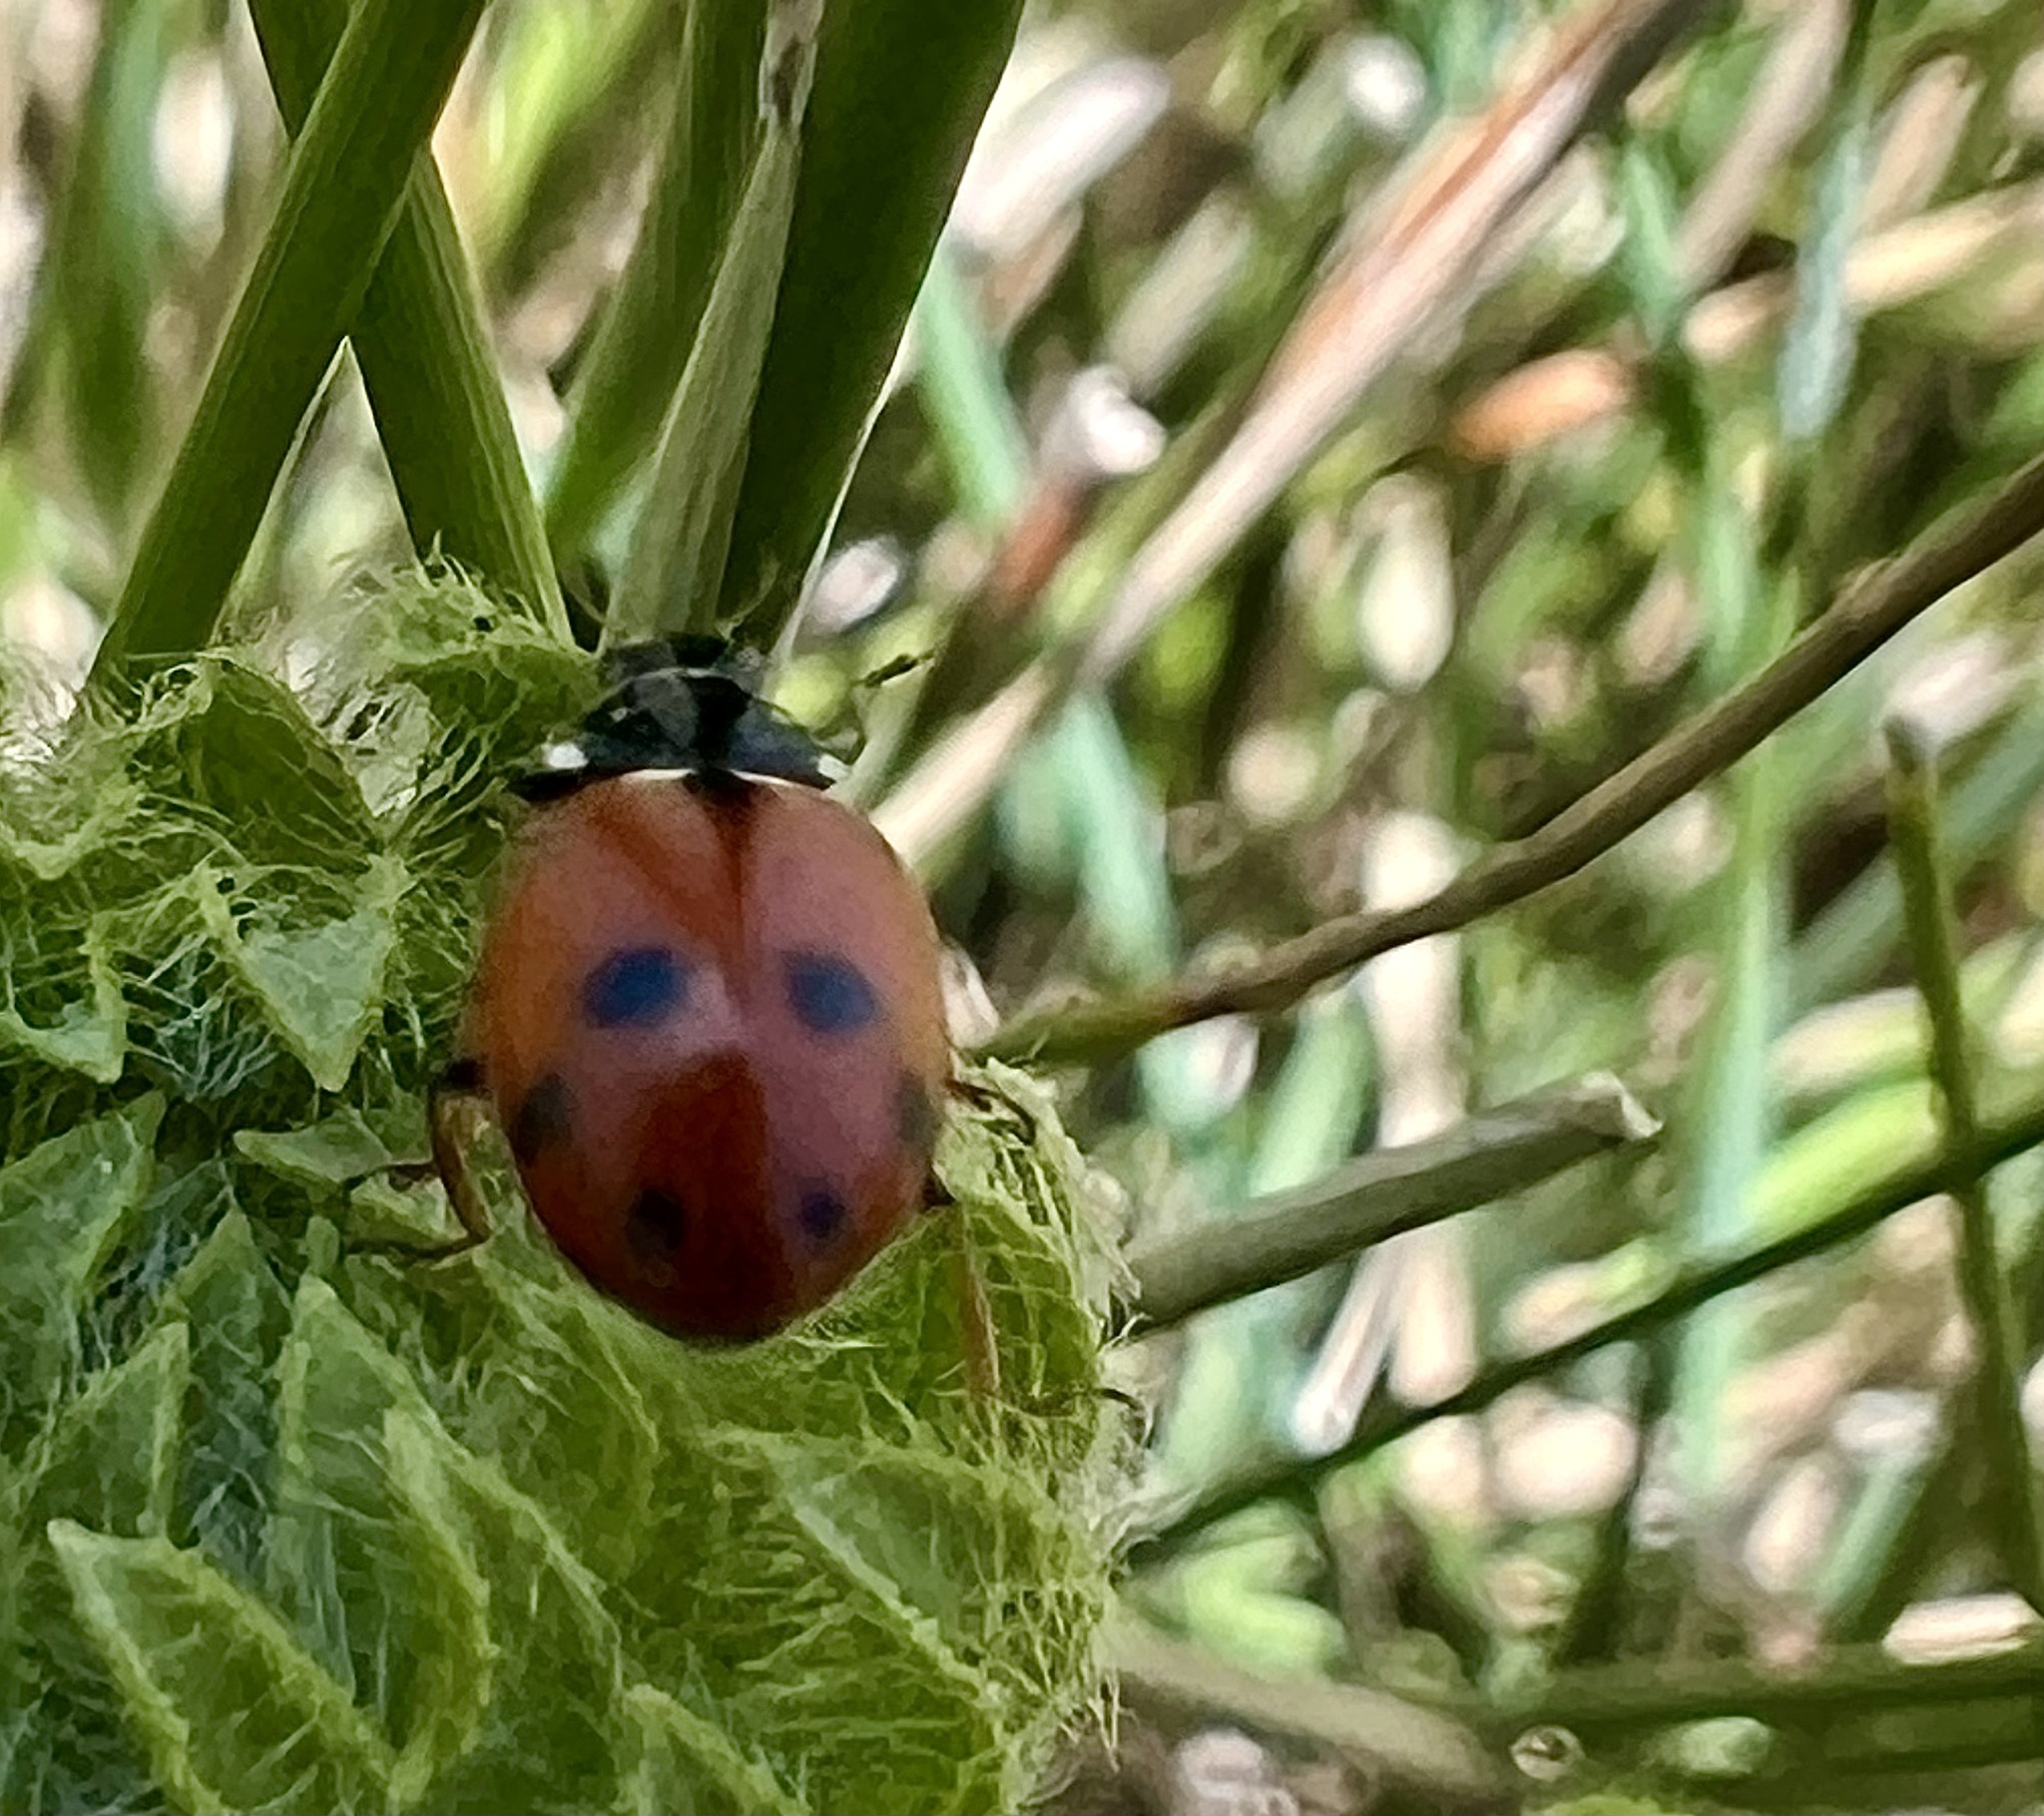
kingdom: Animalia
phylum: Arthropoda
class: Insecta
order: Coleoptera
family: Coccinellidae
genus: Hippodamia
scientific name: Hippodamia variegata
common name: Ladybird beetle
